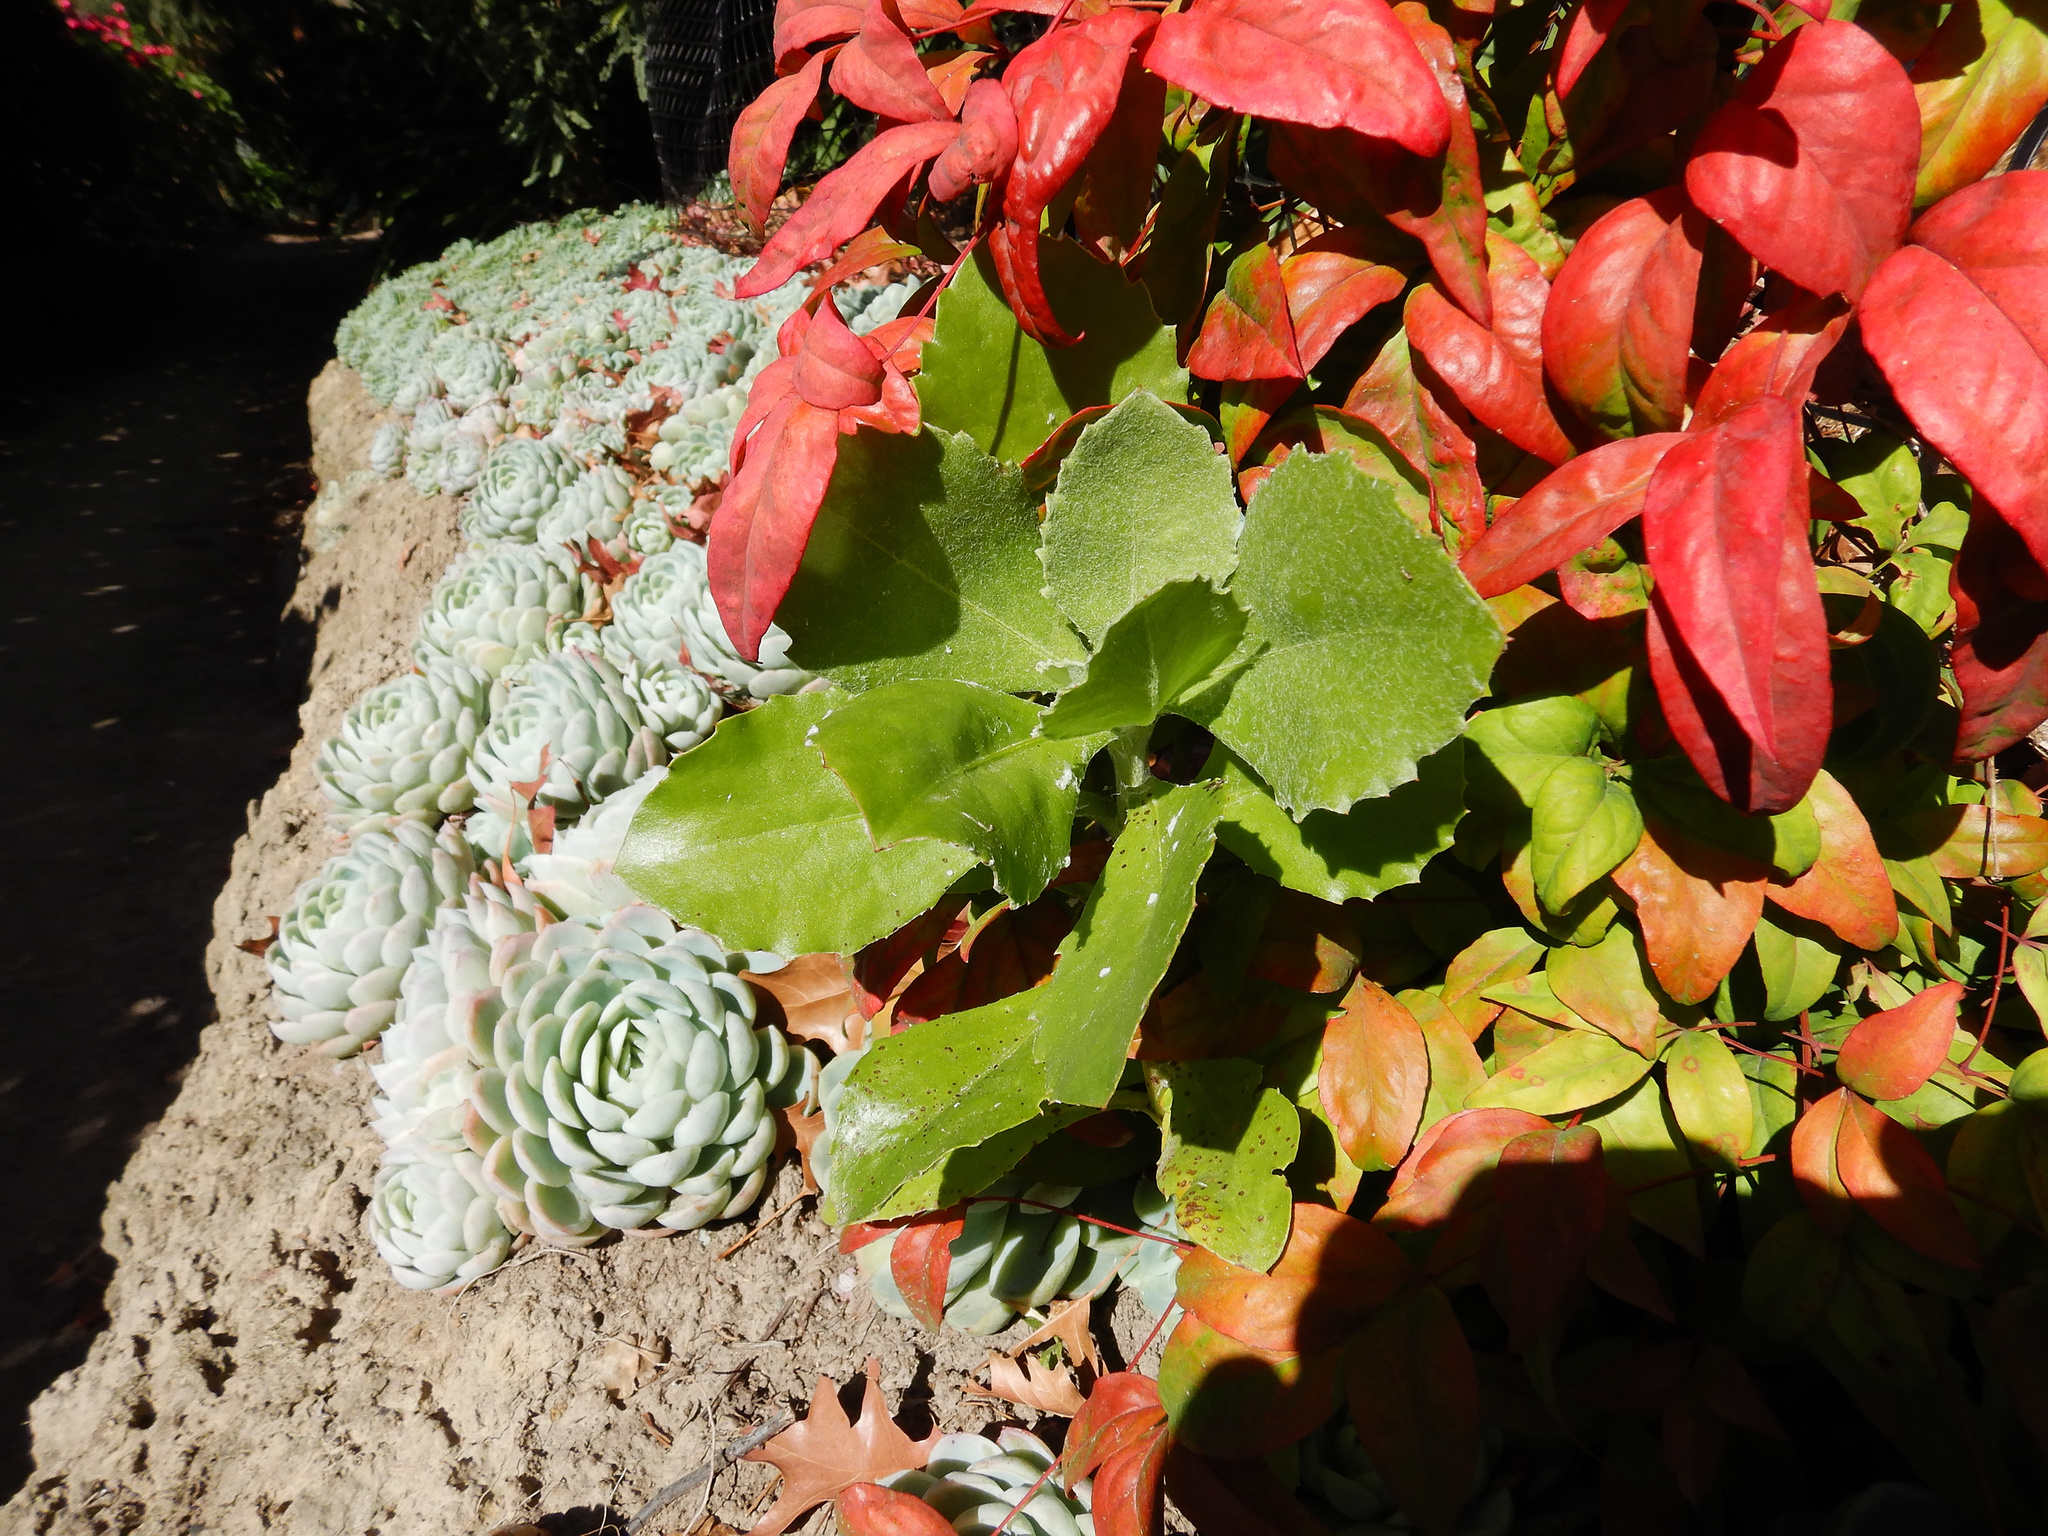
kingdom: Plantae
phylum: Tracheophyta
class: Magnoliopsida
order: Asterales
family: Asteraceae
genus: Osteospermum
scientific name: Osteospermum moniliferum
